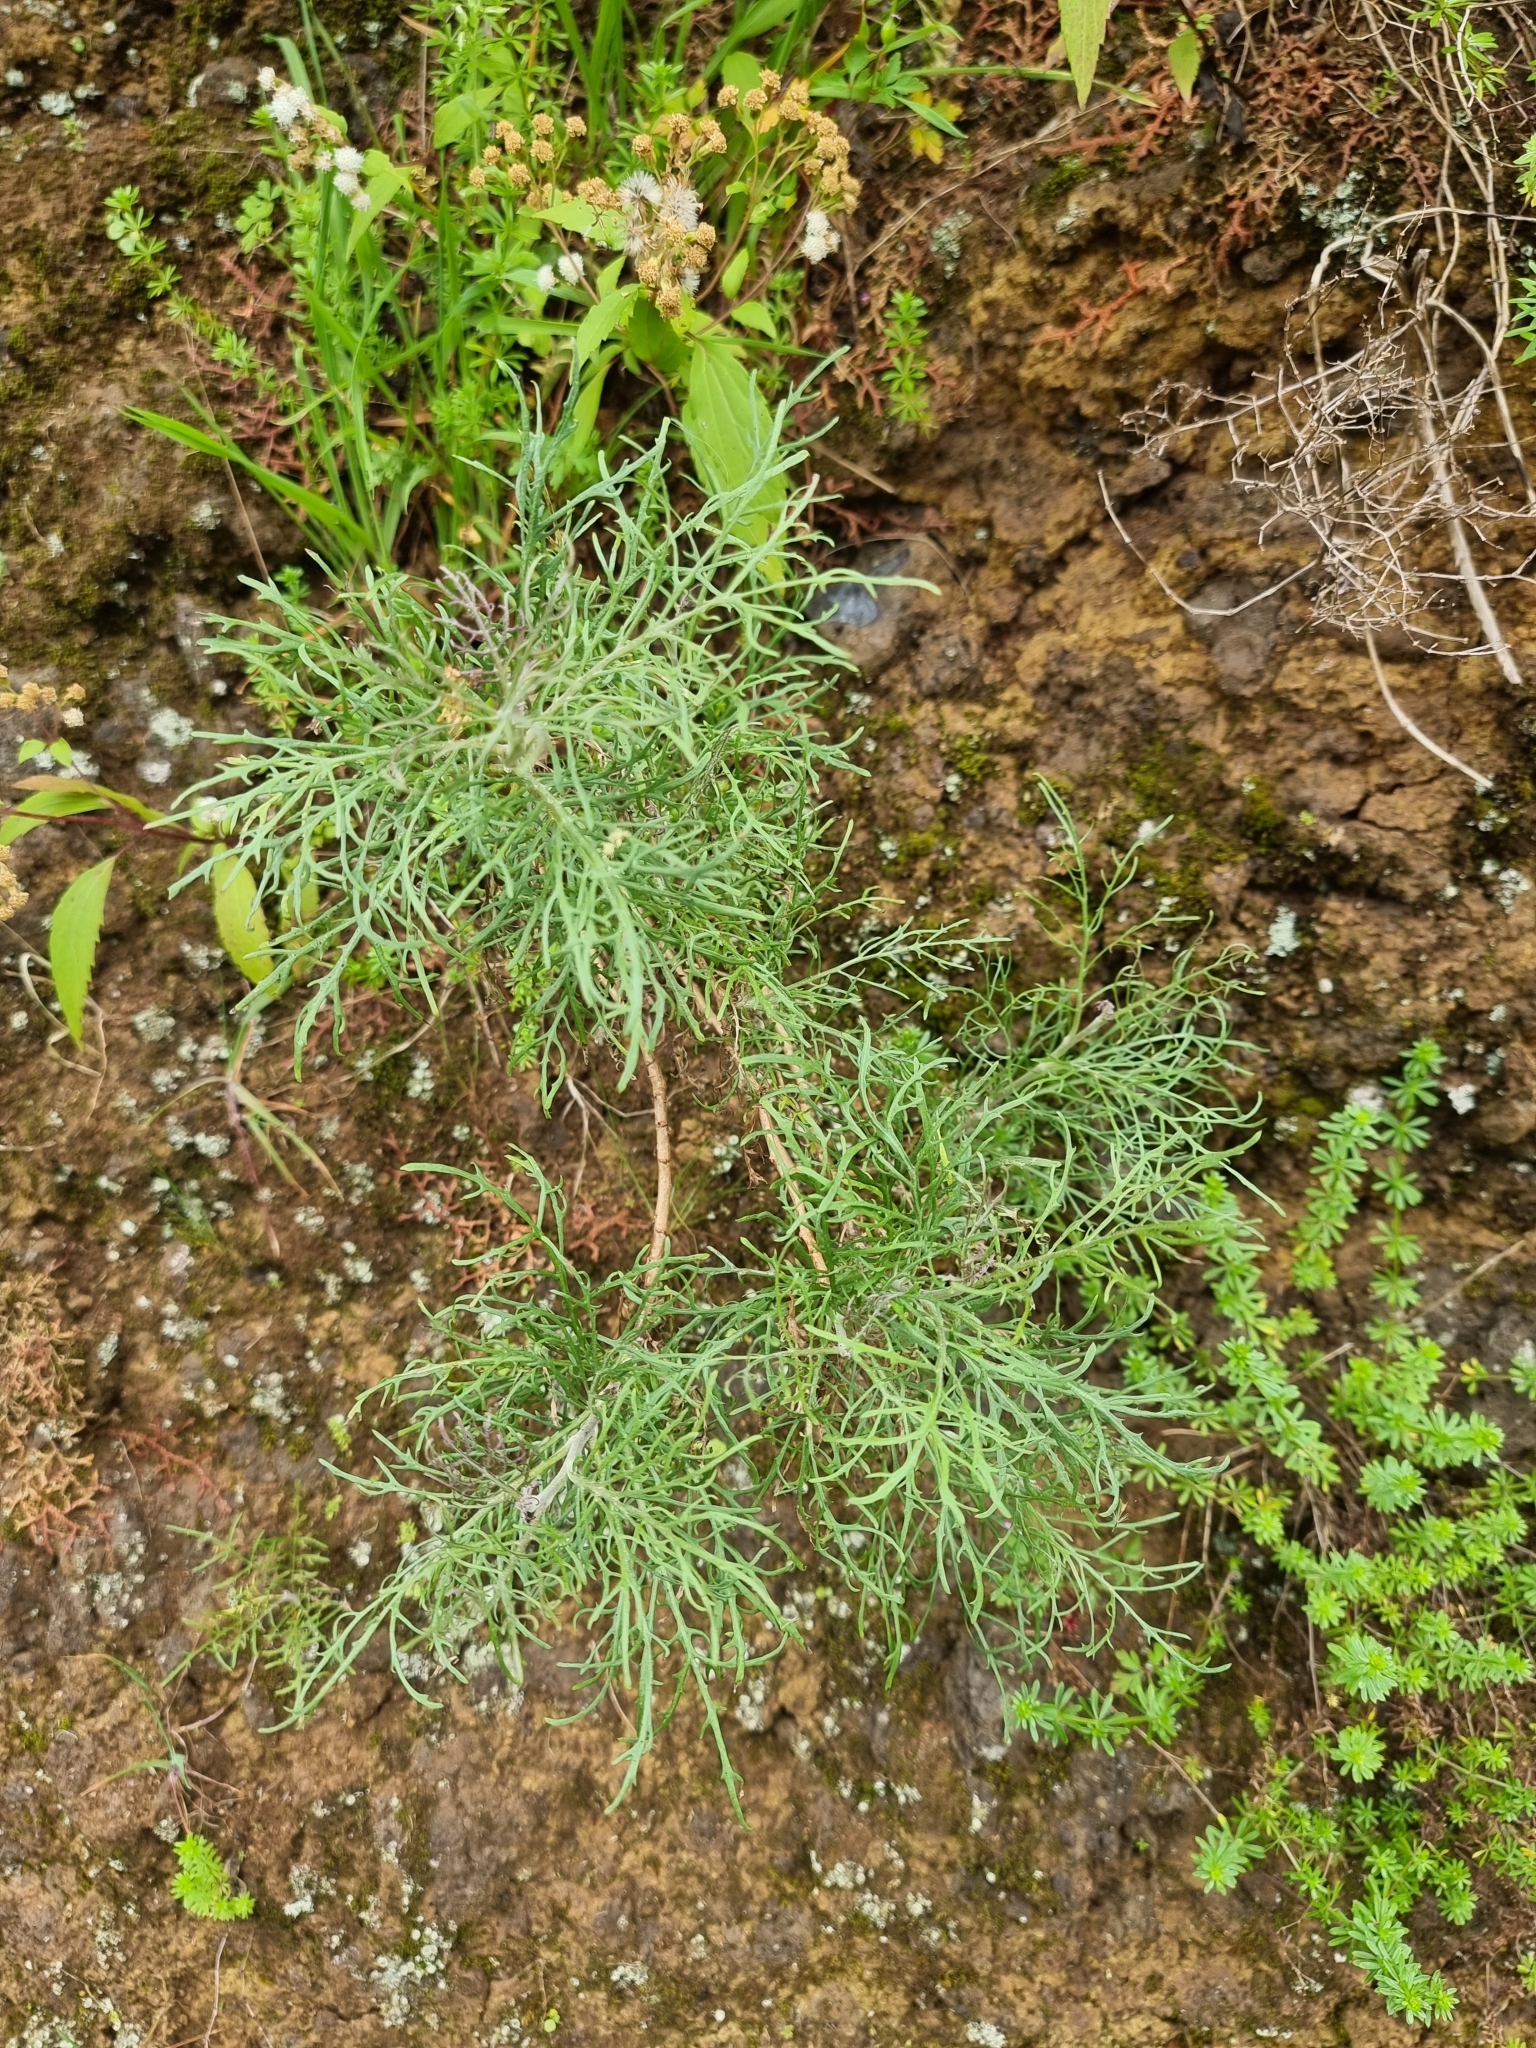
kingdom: Plantae
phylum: Tracheophyta
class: Magnoliopsida
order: Asterales
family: Asteraceae
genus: Tolpis
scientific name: Tolpis succulenta
